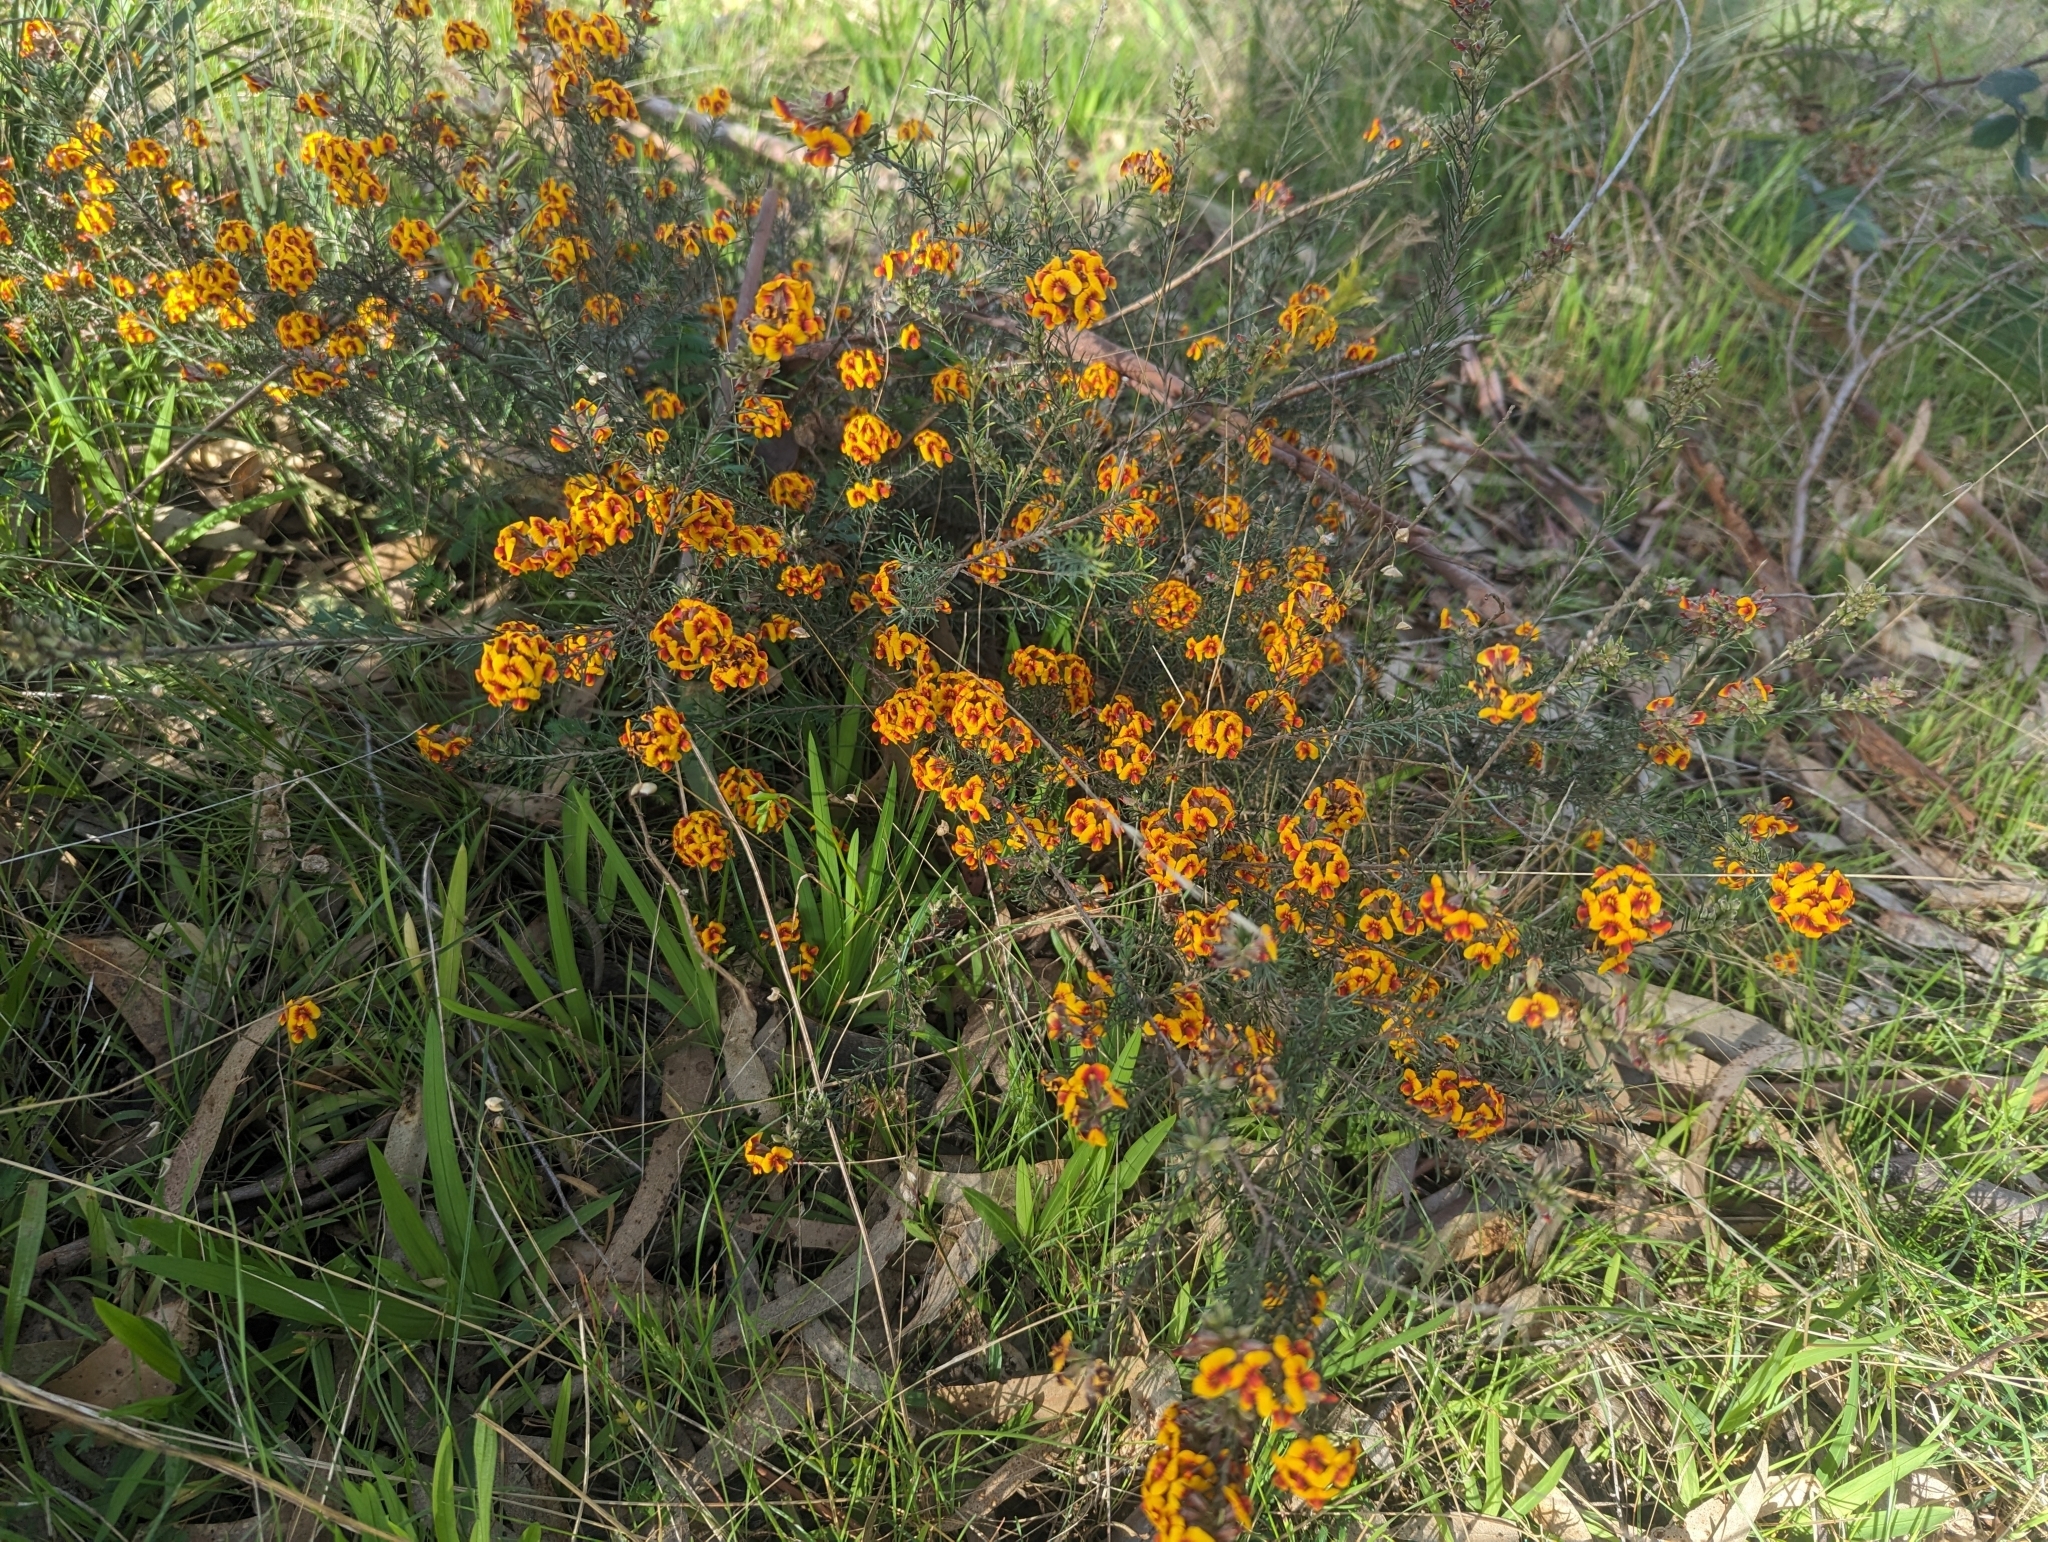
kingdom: Plantae
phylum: Tracheophyta
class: Magnoliopsida
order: Fabales
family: Fabaceae
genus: Dillwynia
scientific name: Dillwynia cinerascens
